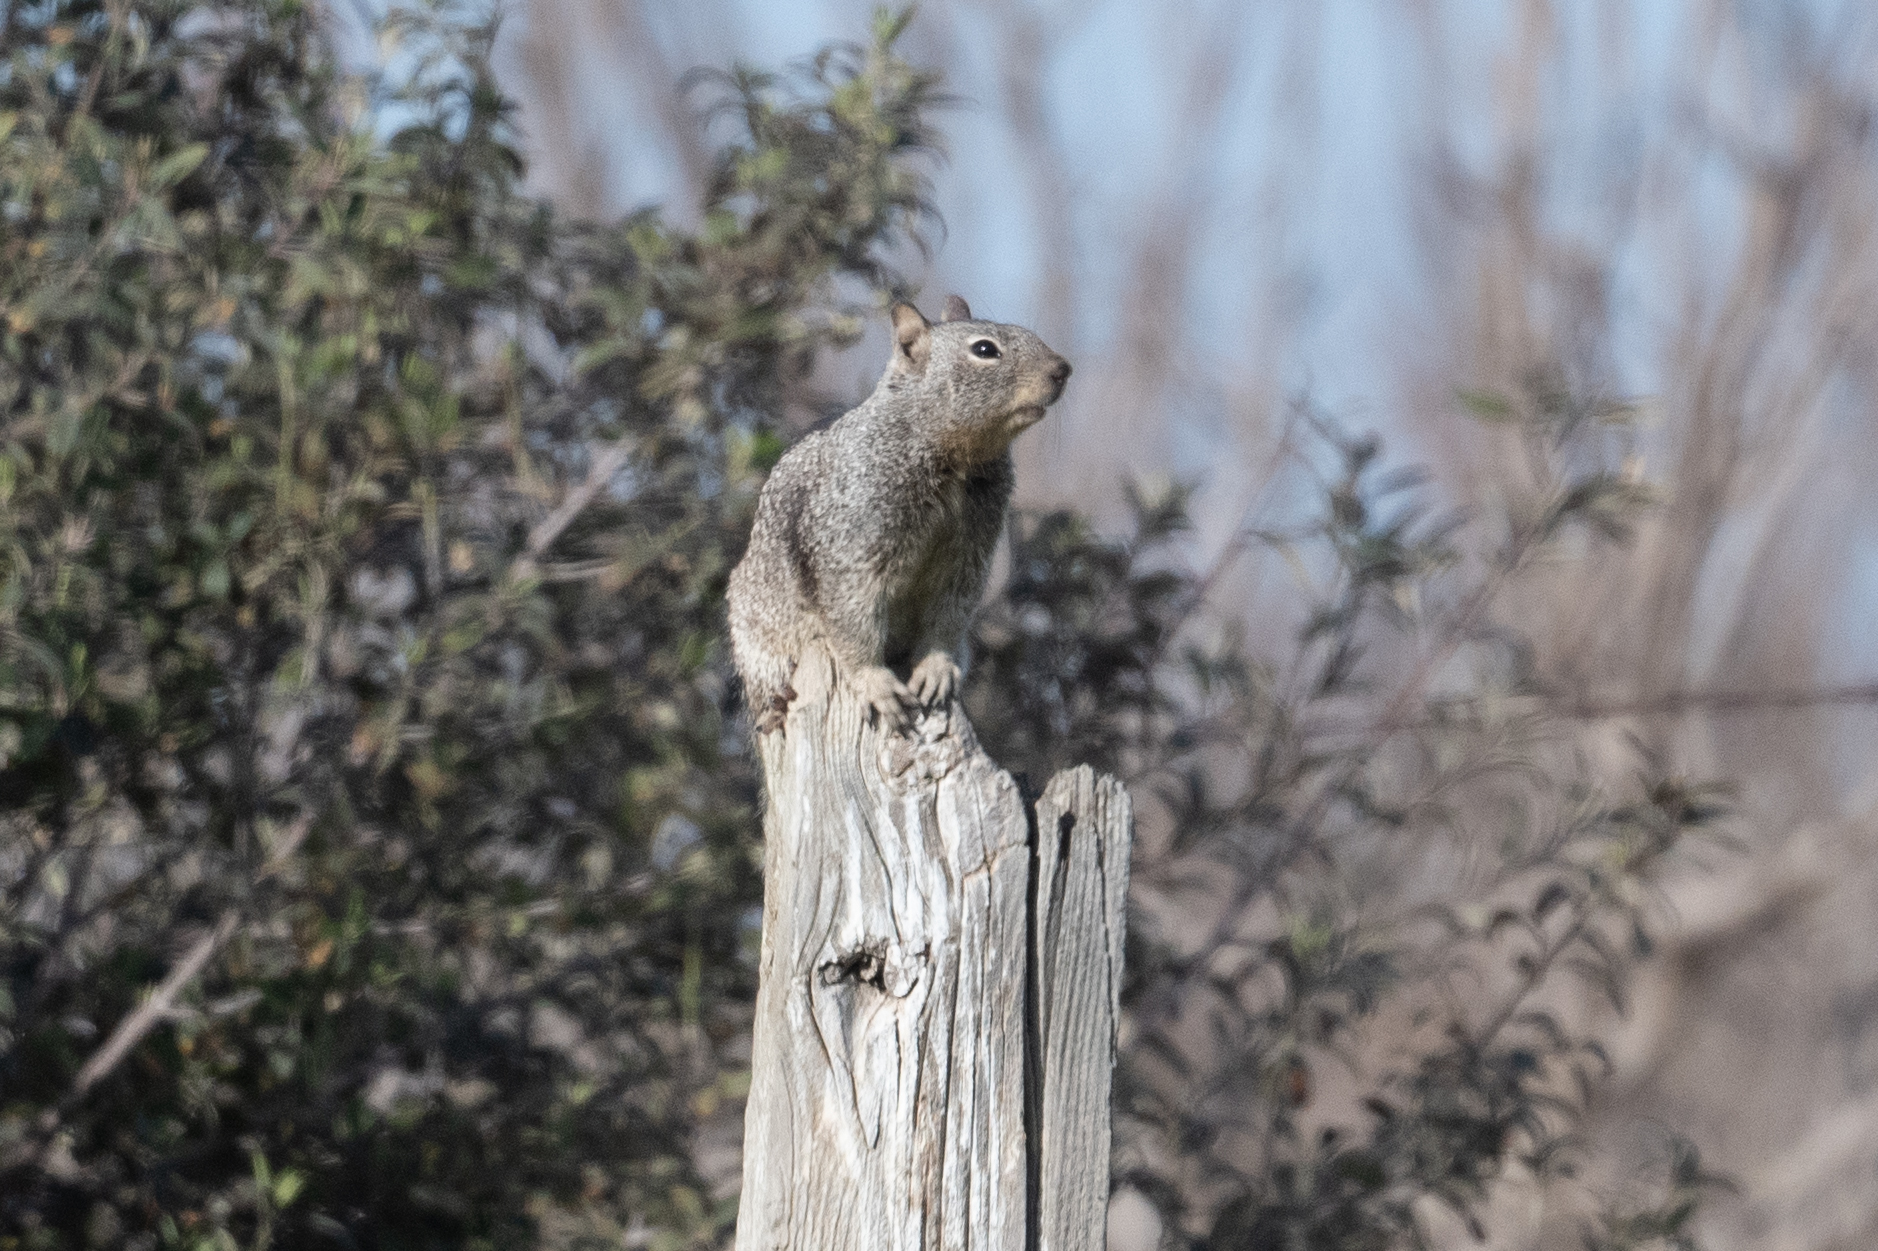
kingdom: Animalia
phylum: Chordata
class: Mammalia
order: Rodentia
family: Sciuridae
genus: Otospermophilus
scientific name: Otospermophilus beecheyi
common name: California ground squirrel
